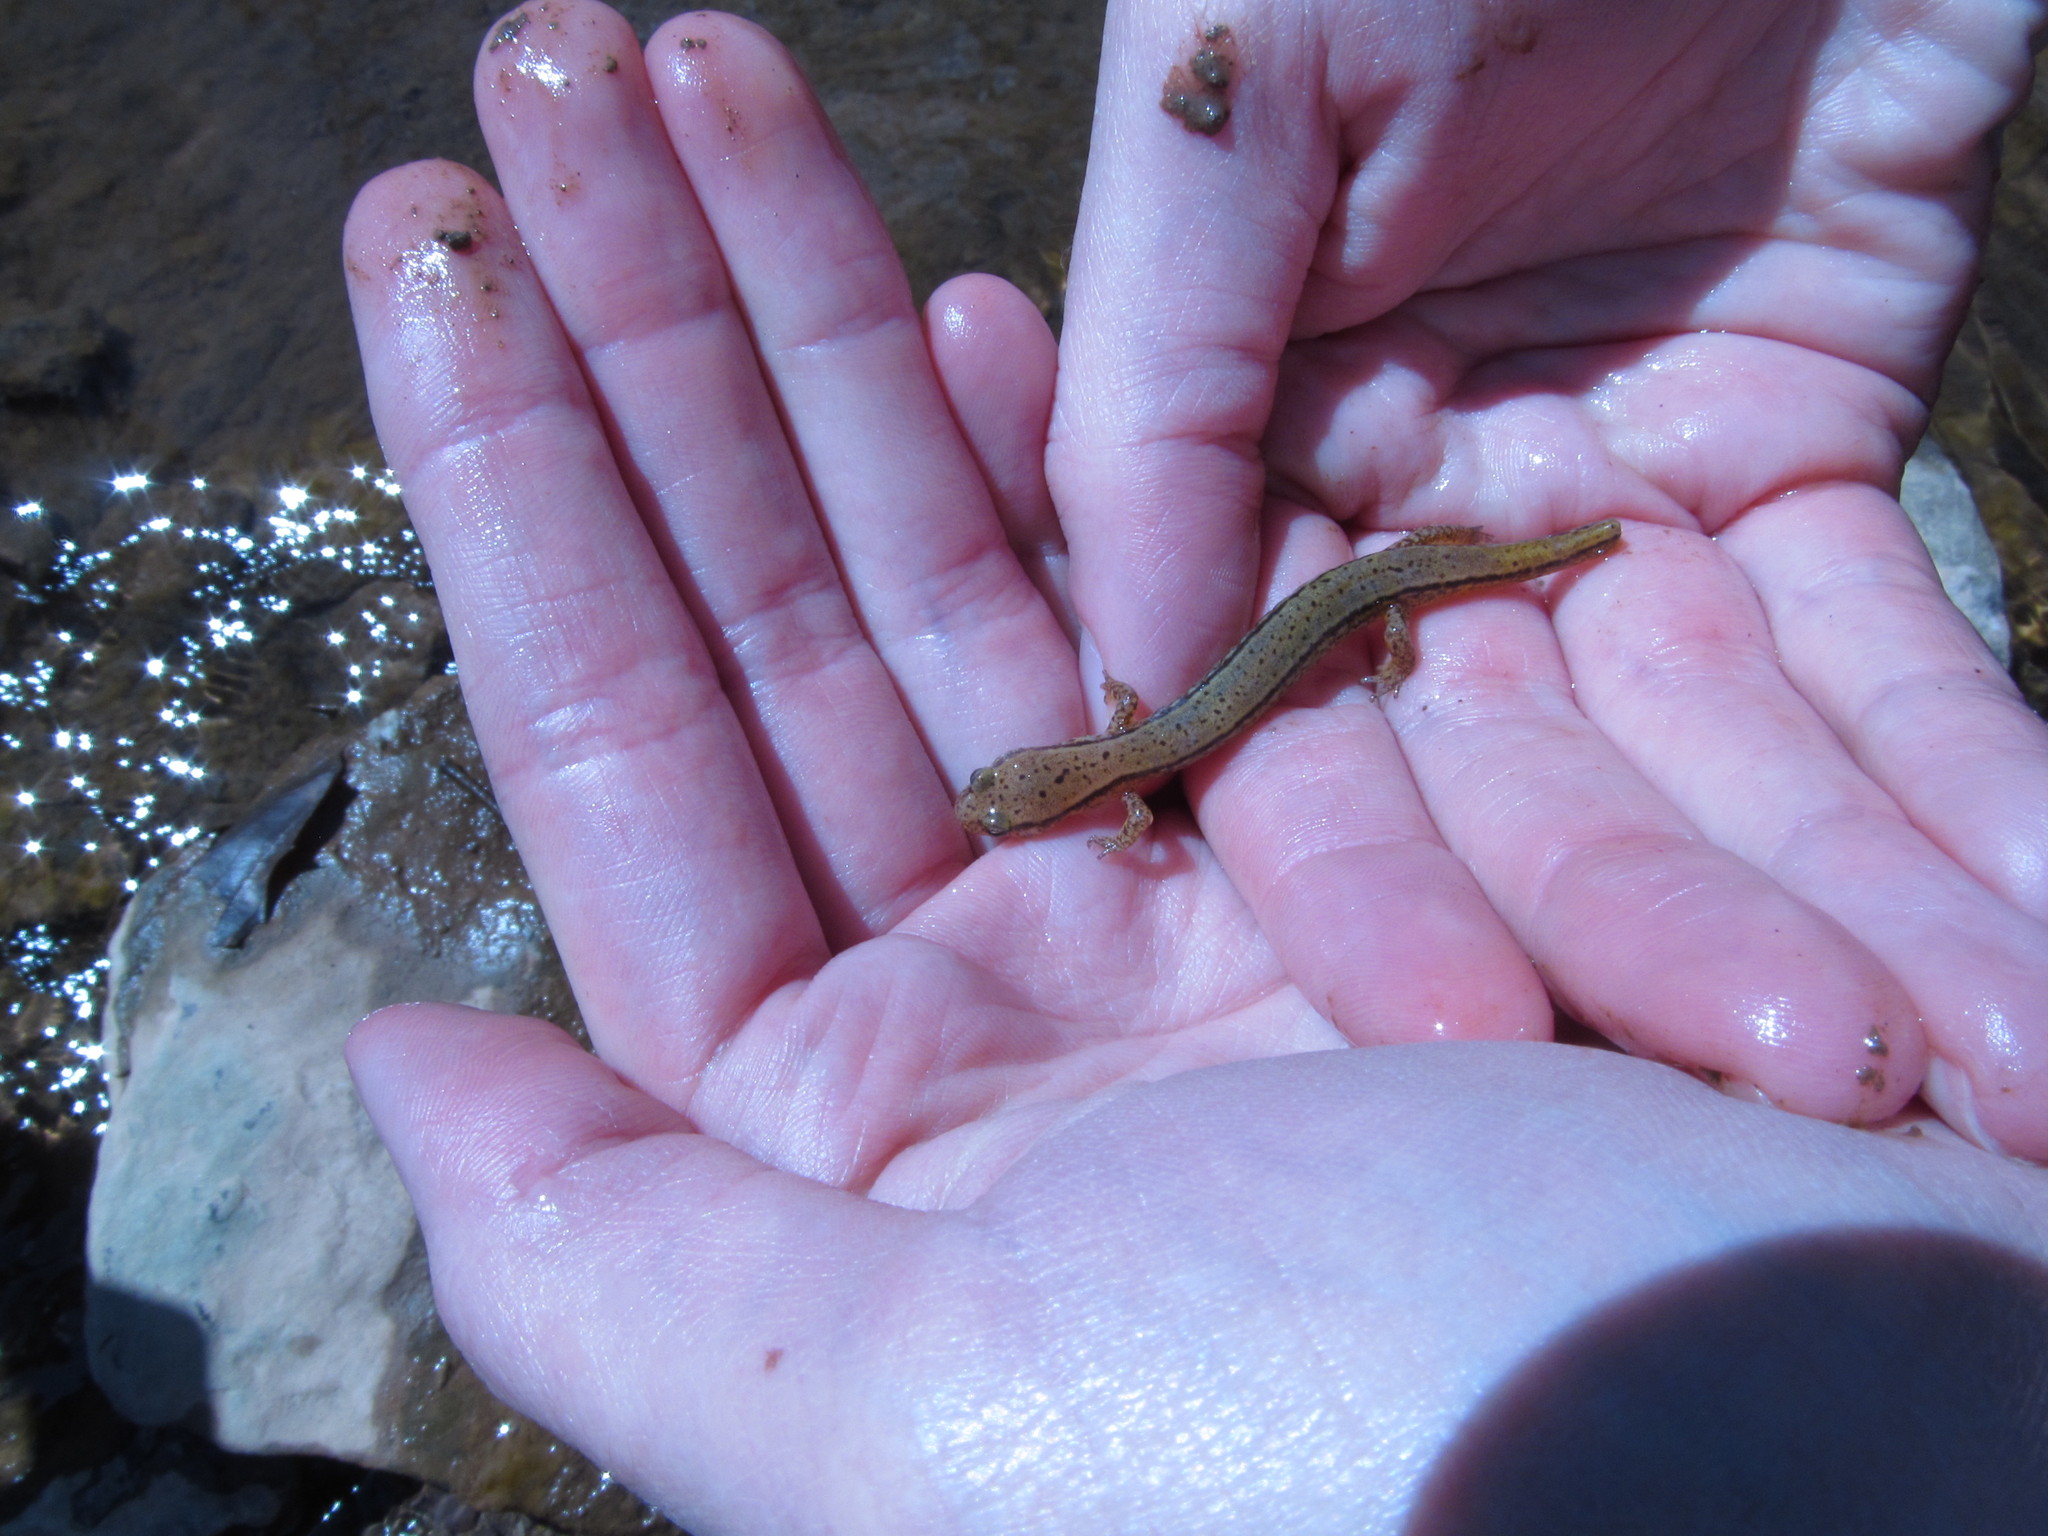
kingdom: Animalia
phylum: Chordata
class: Amphibia
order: Caudata
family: Plethodontidae
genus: Eurycea
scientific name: Eurycea cirrigera
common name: Southern two-lined salamander
